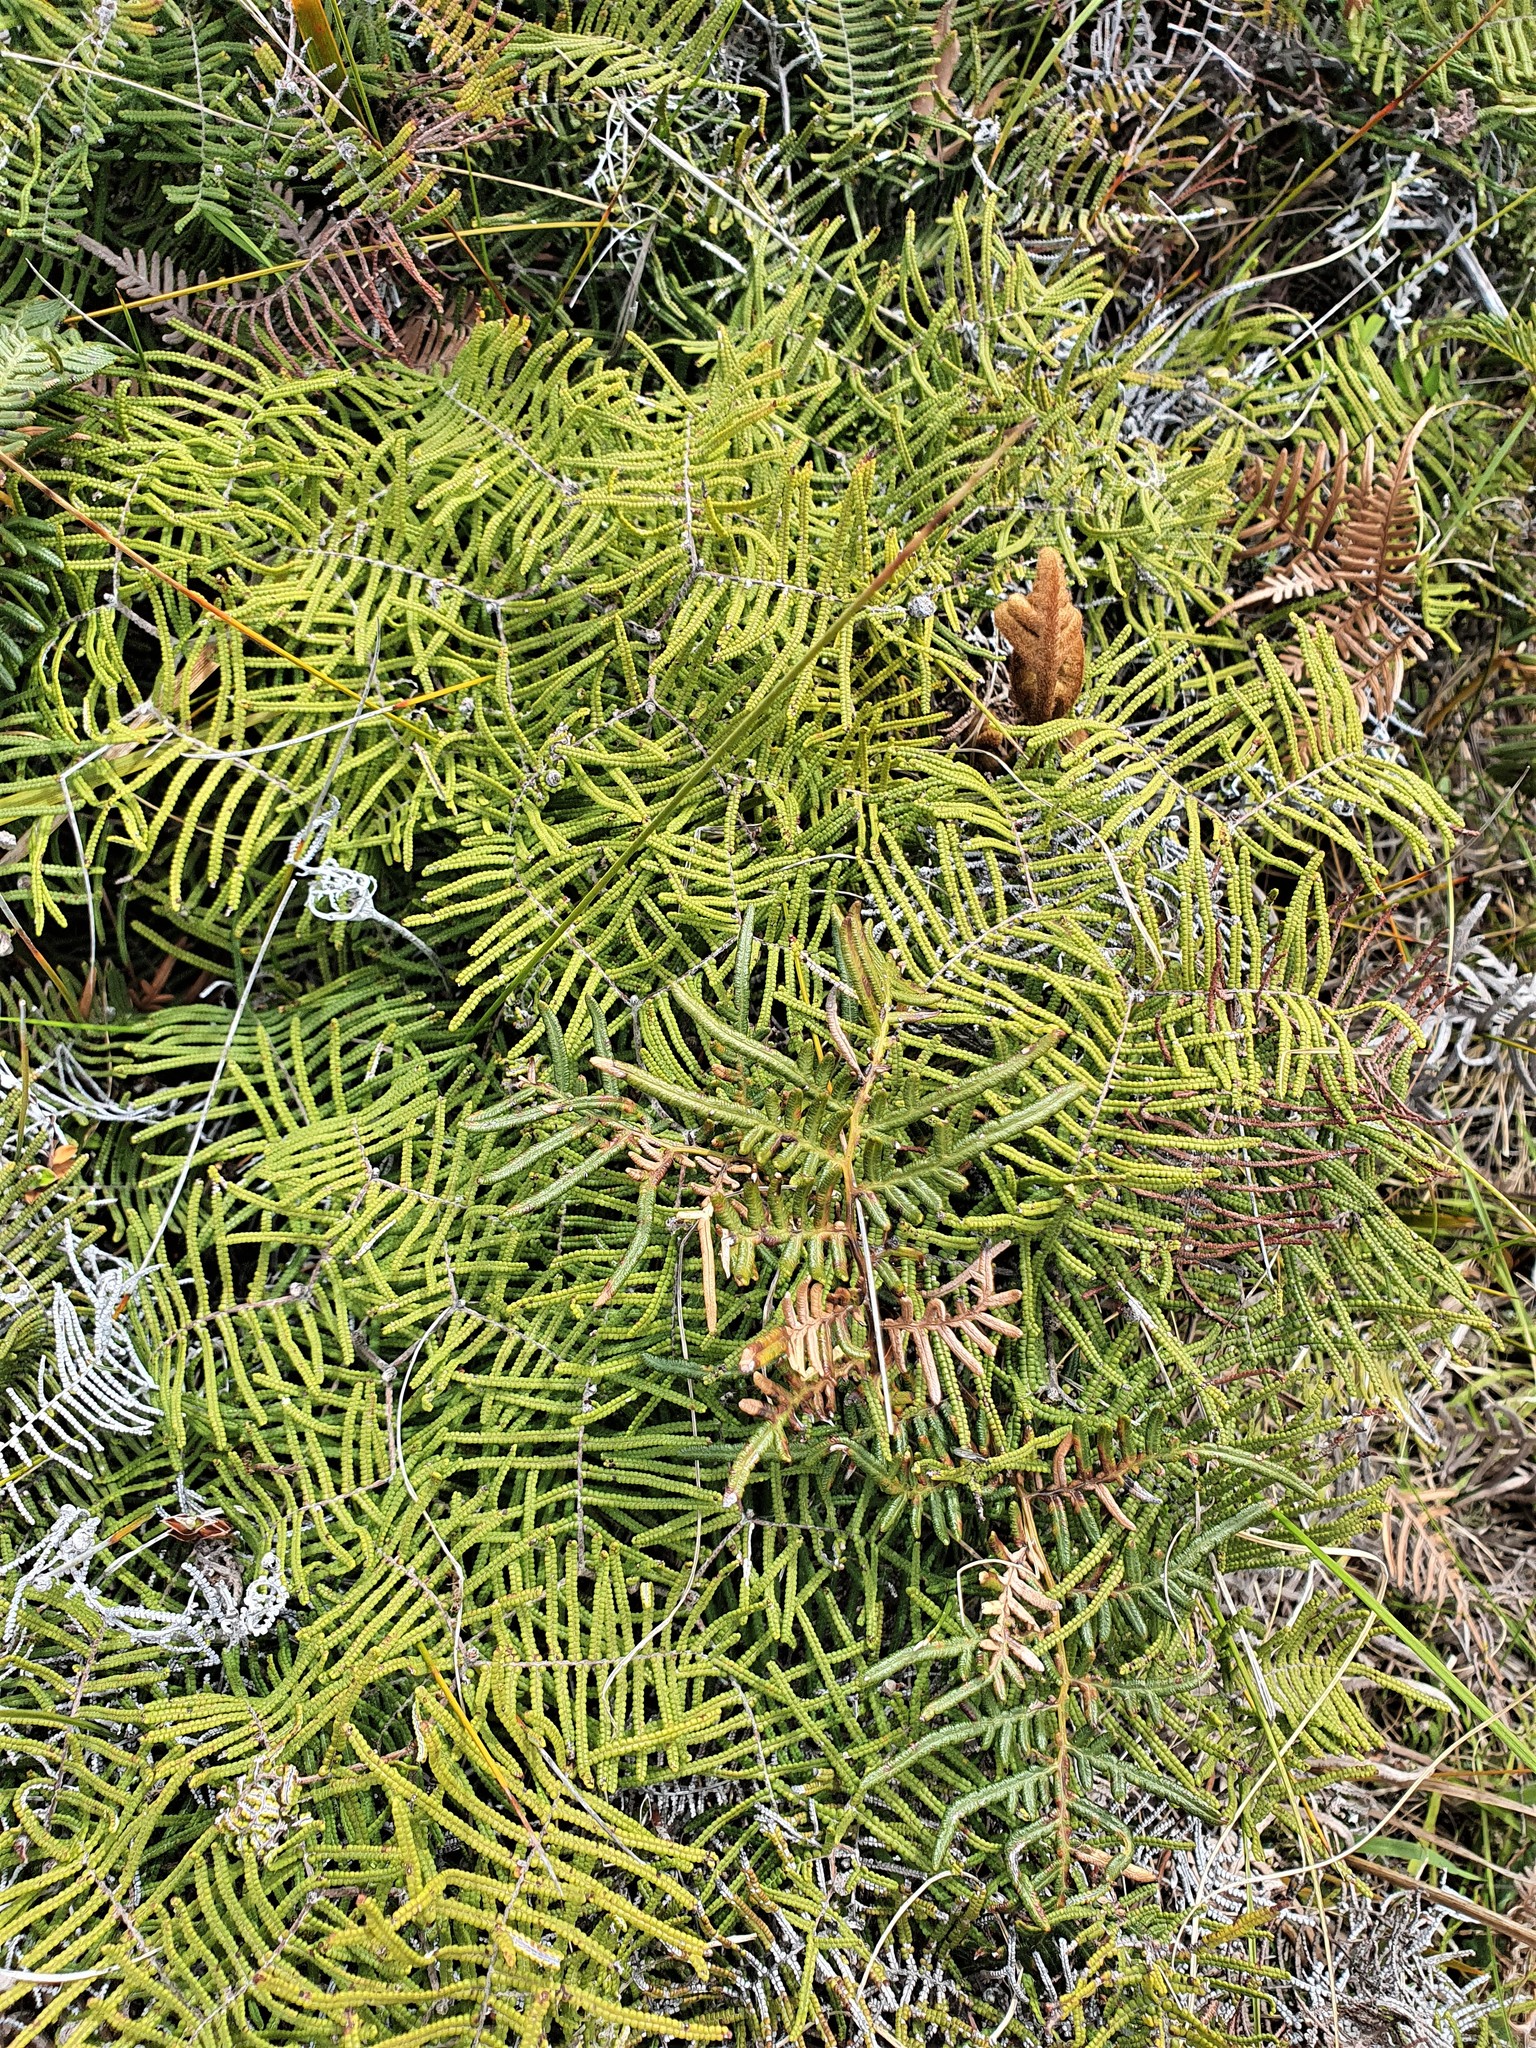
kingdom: Plantae
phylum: Tracheophyta
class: Polypodiopsida
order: Gleicheniales
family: Gleicheniaceae
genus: Gleichenia
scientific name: Gleichenia dicarpa
